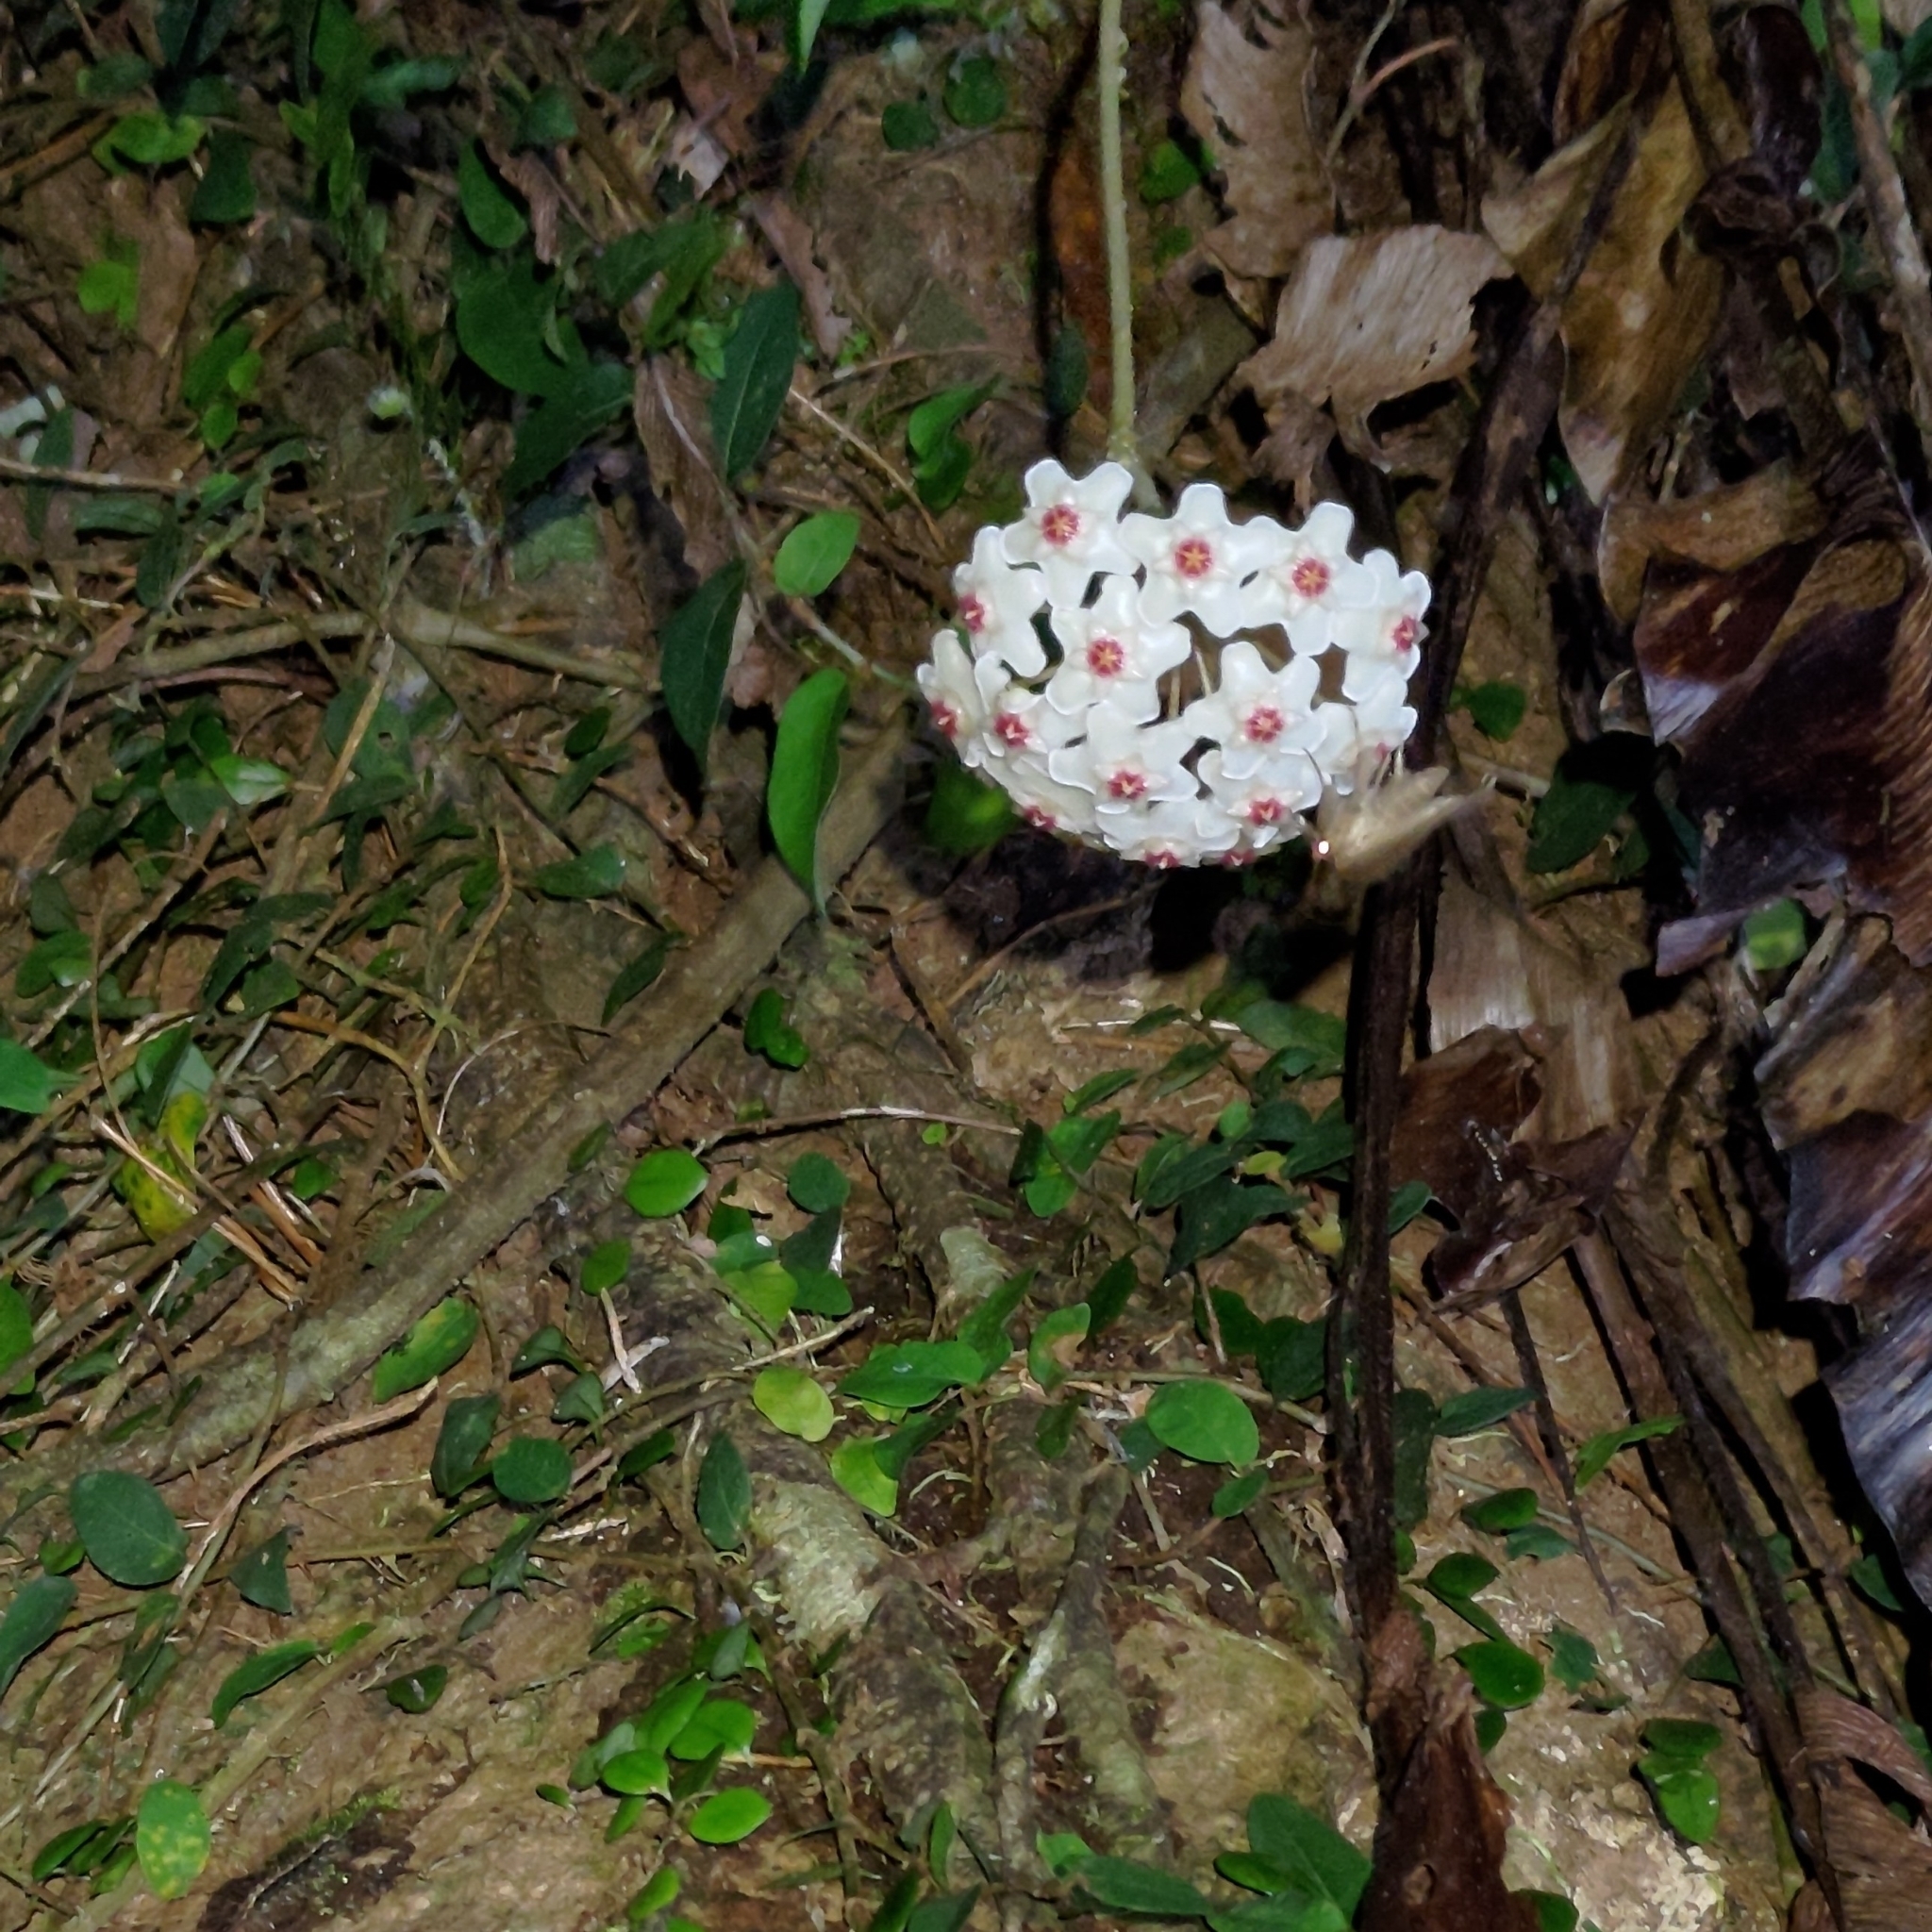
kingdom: Plantae
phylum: Tracheophyta
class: Magnoliopsida
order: Gentianales
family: Apocynaceae
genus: Hoya
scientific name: Hoya carnosa
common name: Honeyplant
